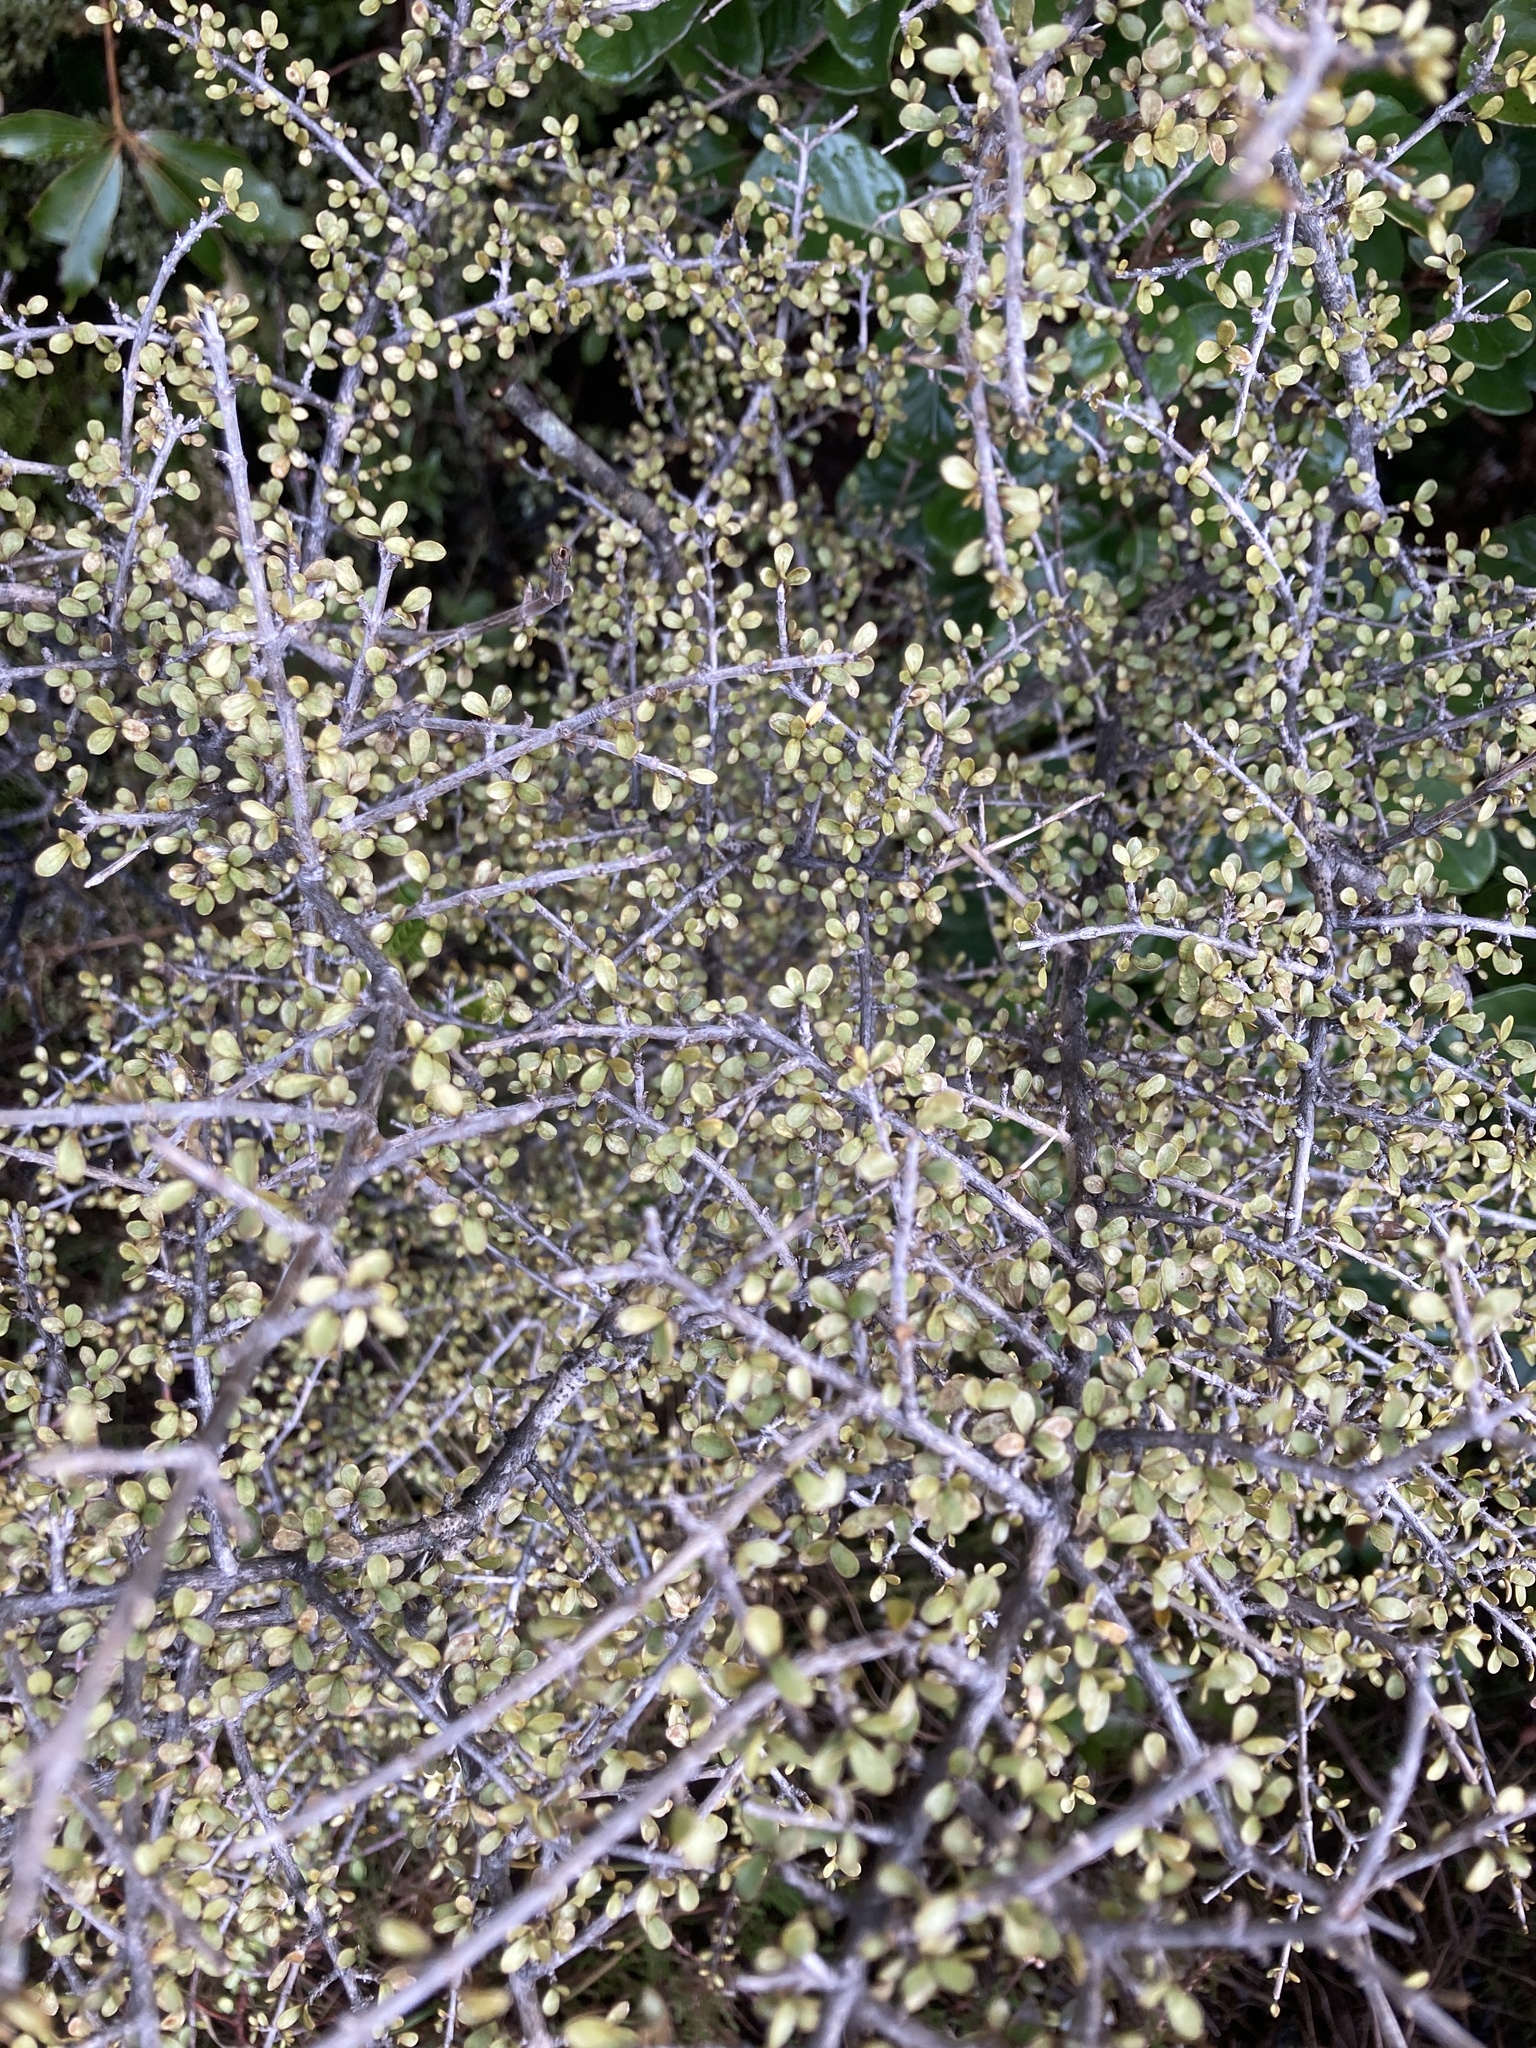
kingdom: Plantae
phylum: Tracheophyta
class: Magnoliopsida
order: Gentianales
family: Rubiaceae
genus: Coprosma
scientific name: Coprosma dumosa
